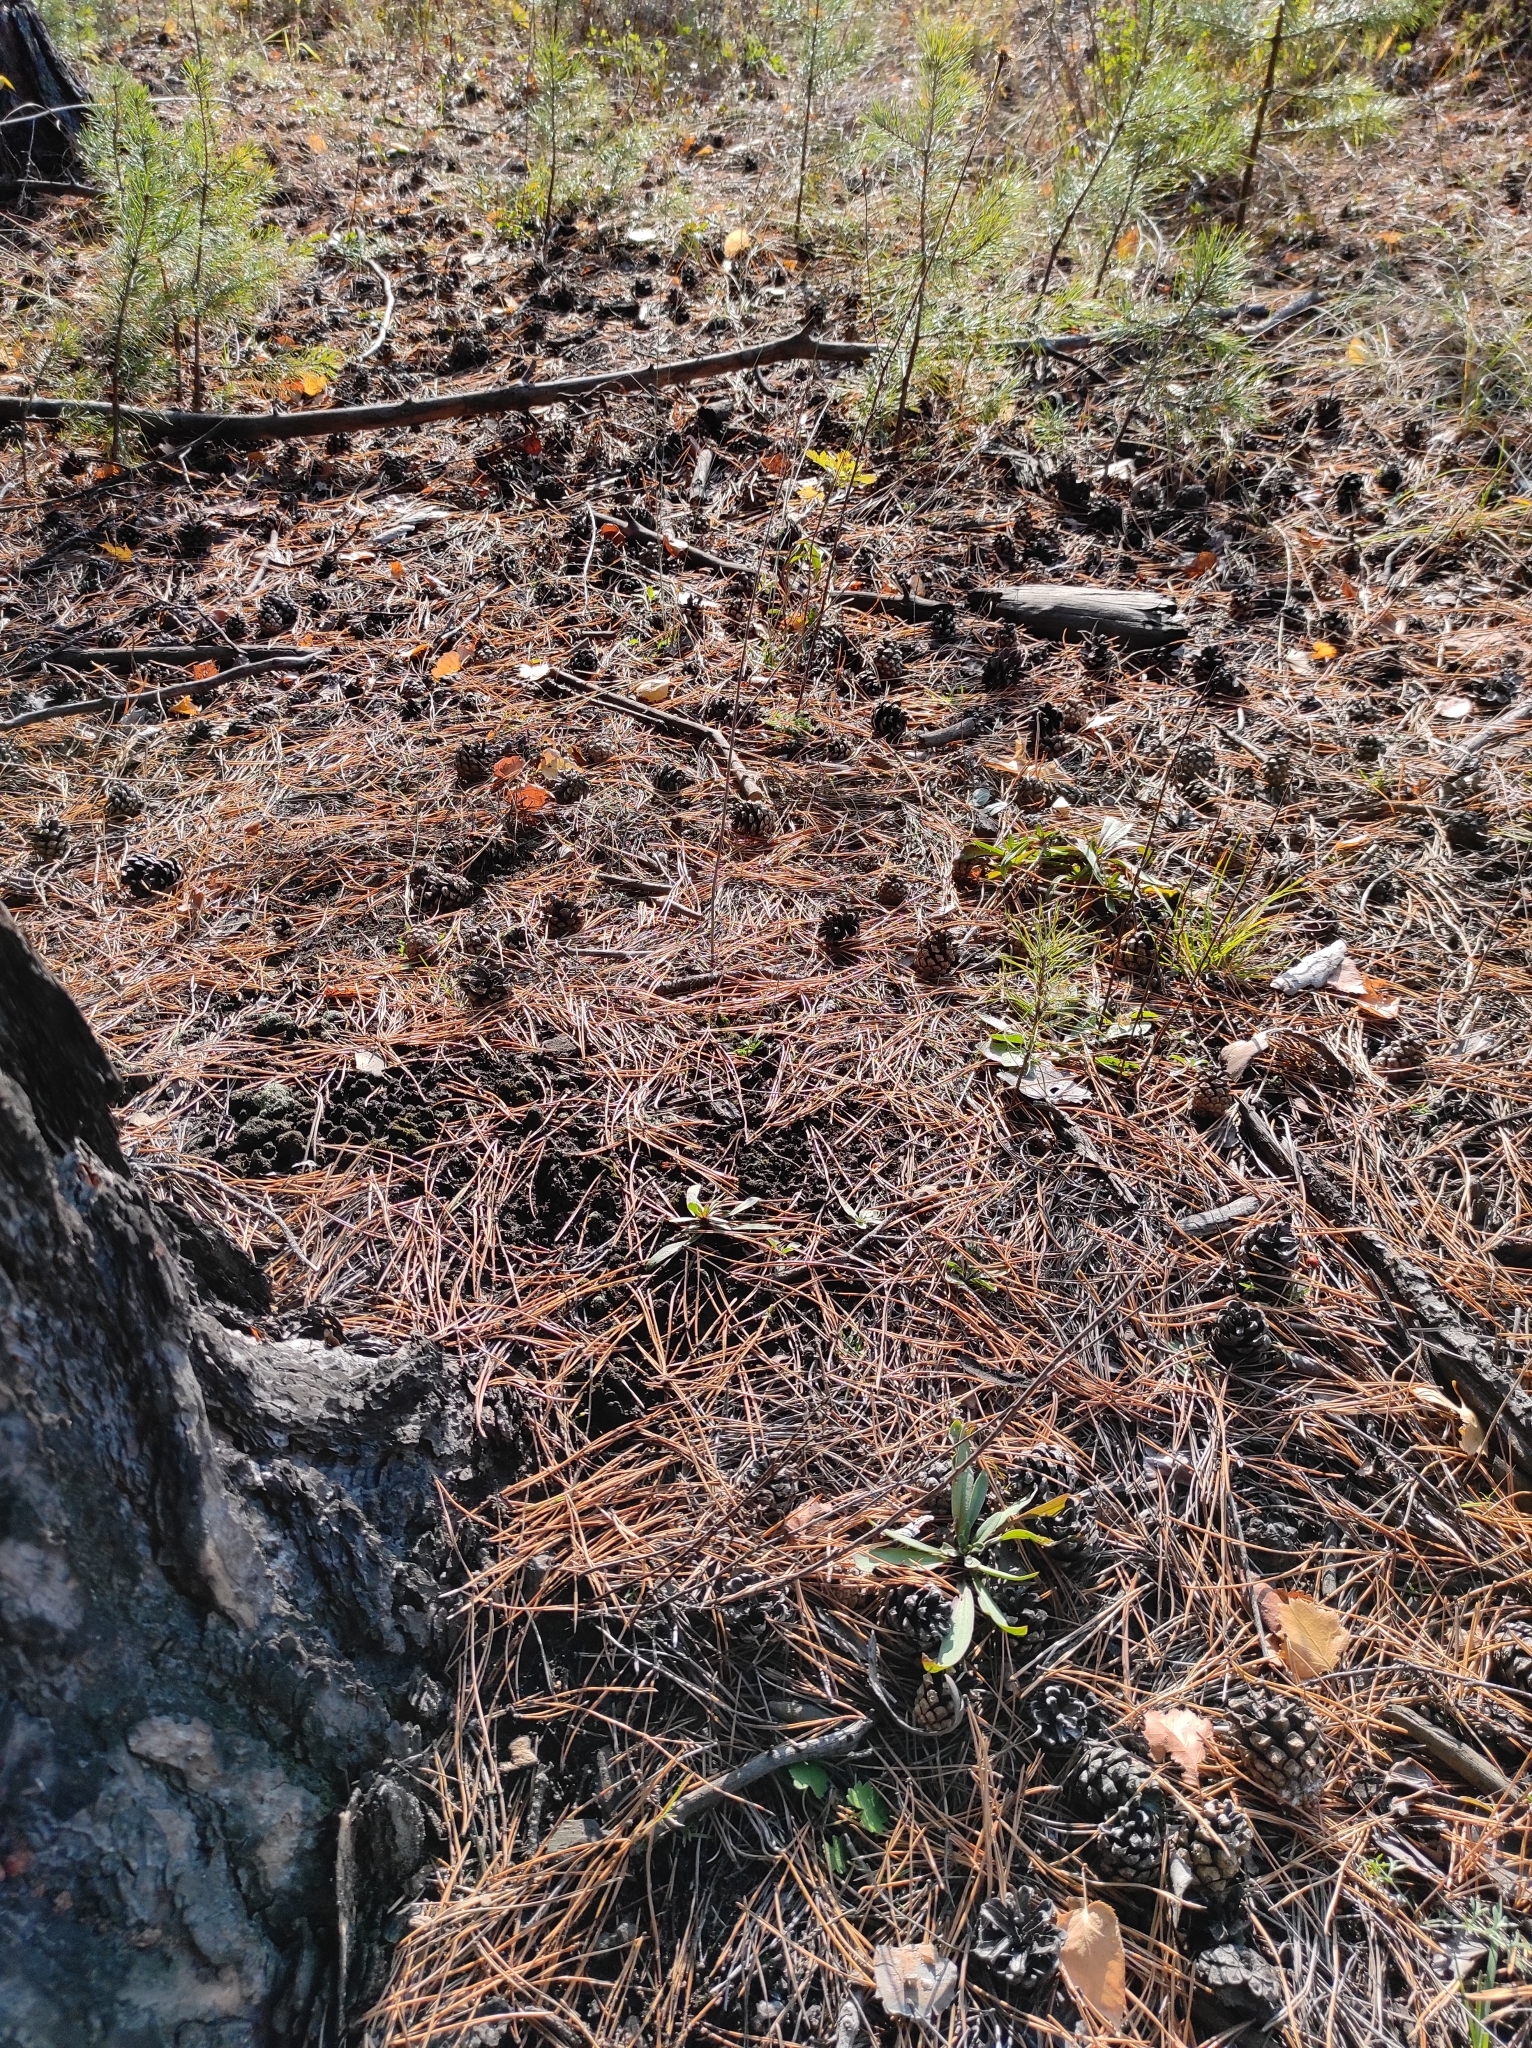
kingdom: Plantae
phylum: Tracheophyta
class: Pinopsida
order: Pinales
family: Pinaceae
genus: Pinus
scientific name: Pinus sylvestris
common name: Scots pine
